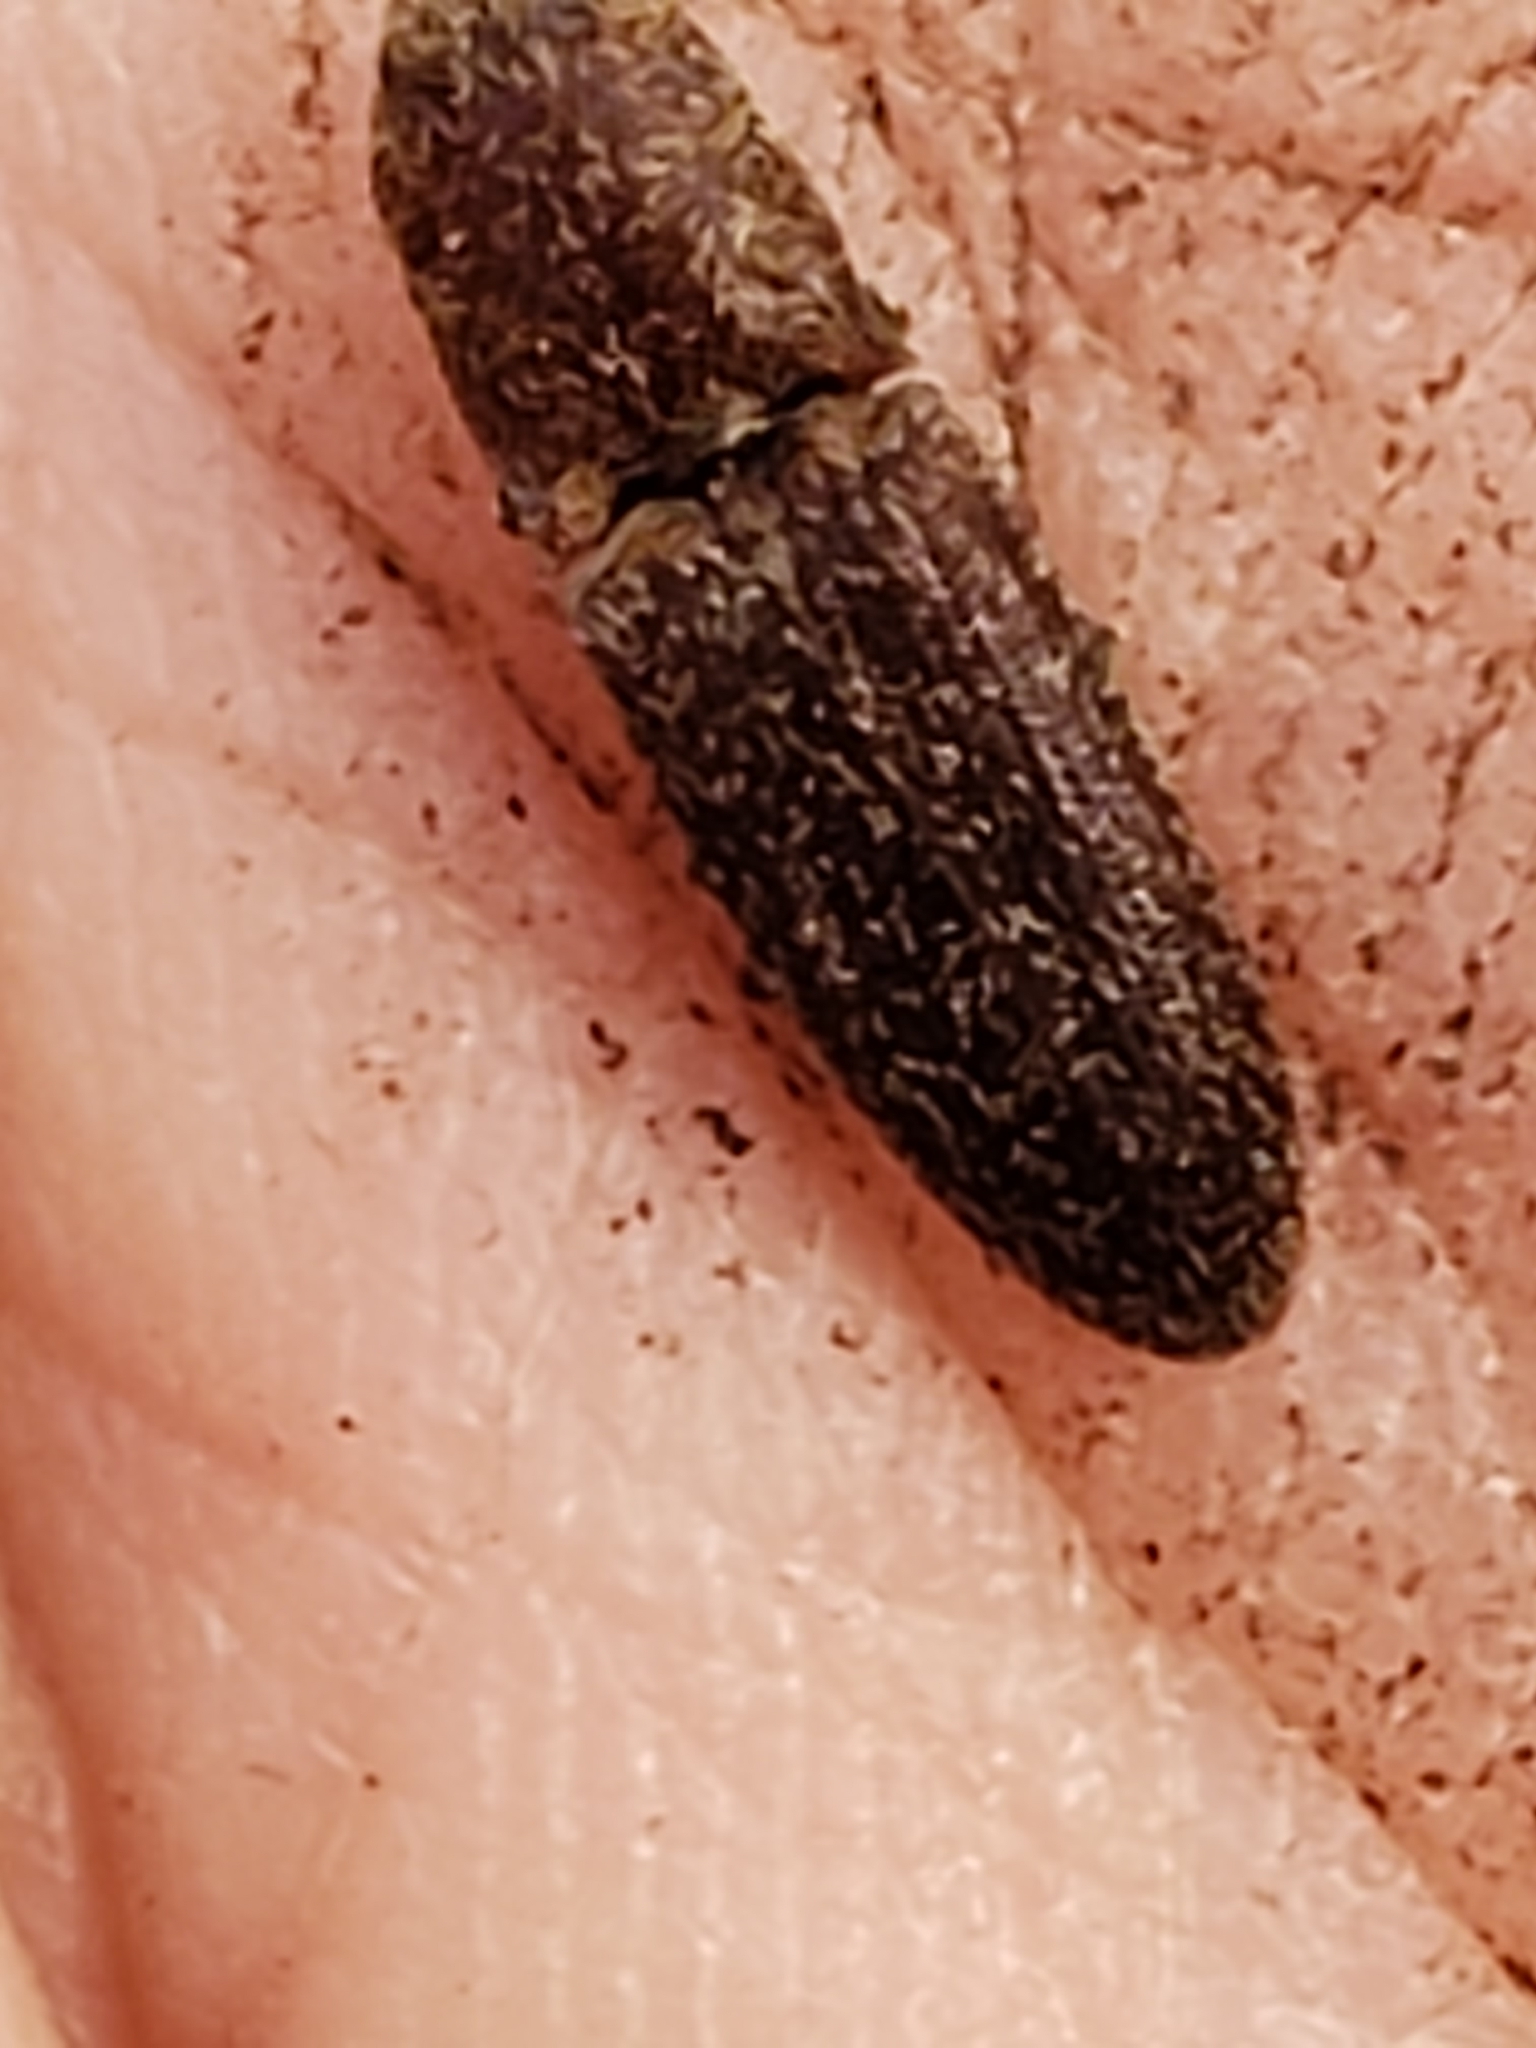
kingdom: Animalia
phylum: Arthropoda
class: Insecta
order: Coleoptera
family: Elateridae
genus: Lacon
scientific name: Lacon impressicollis
